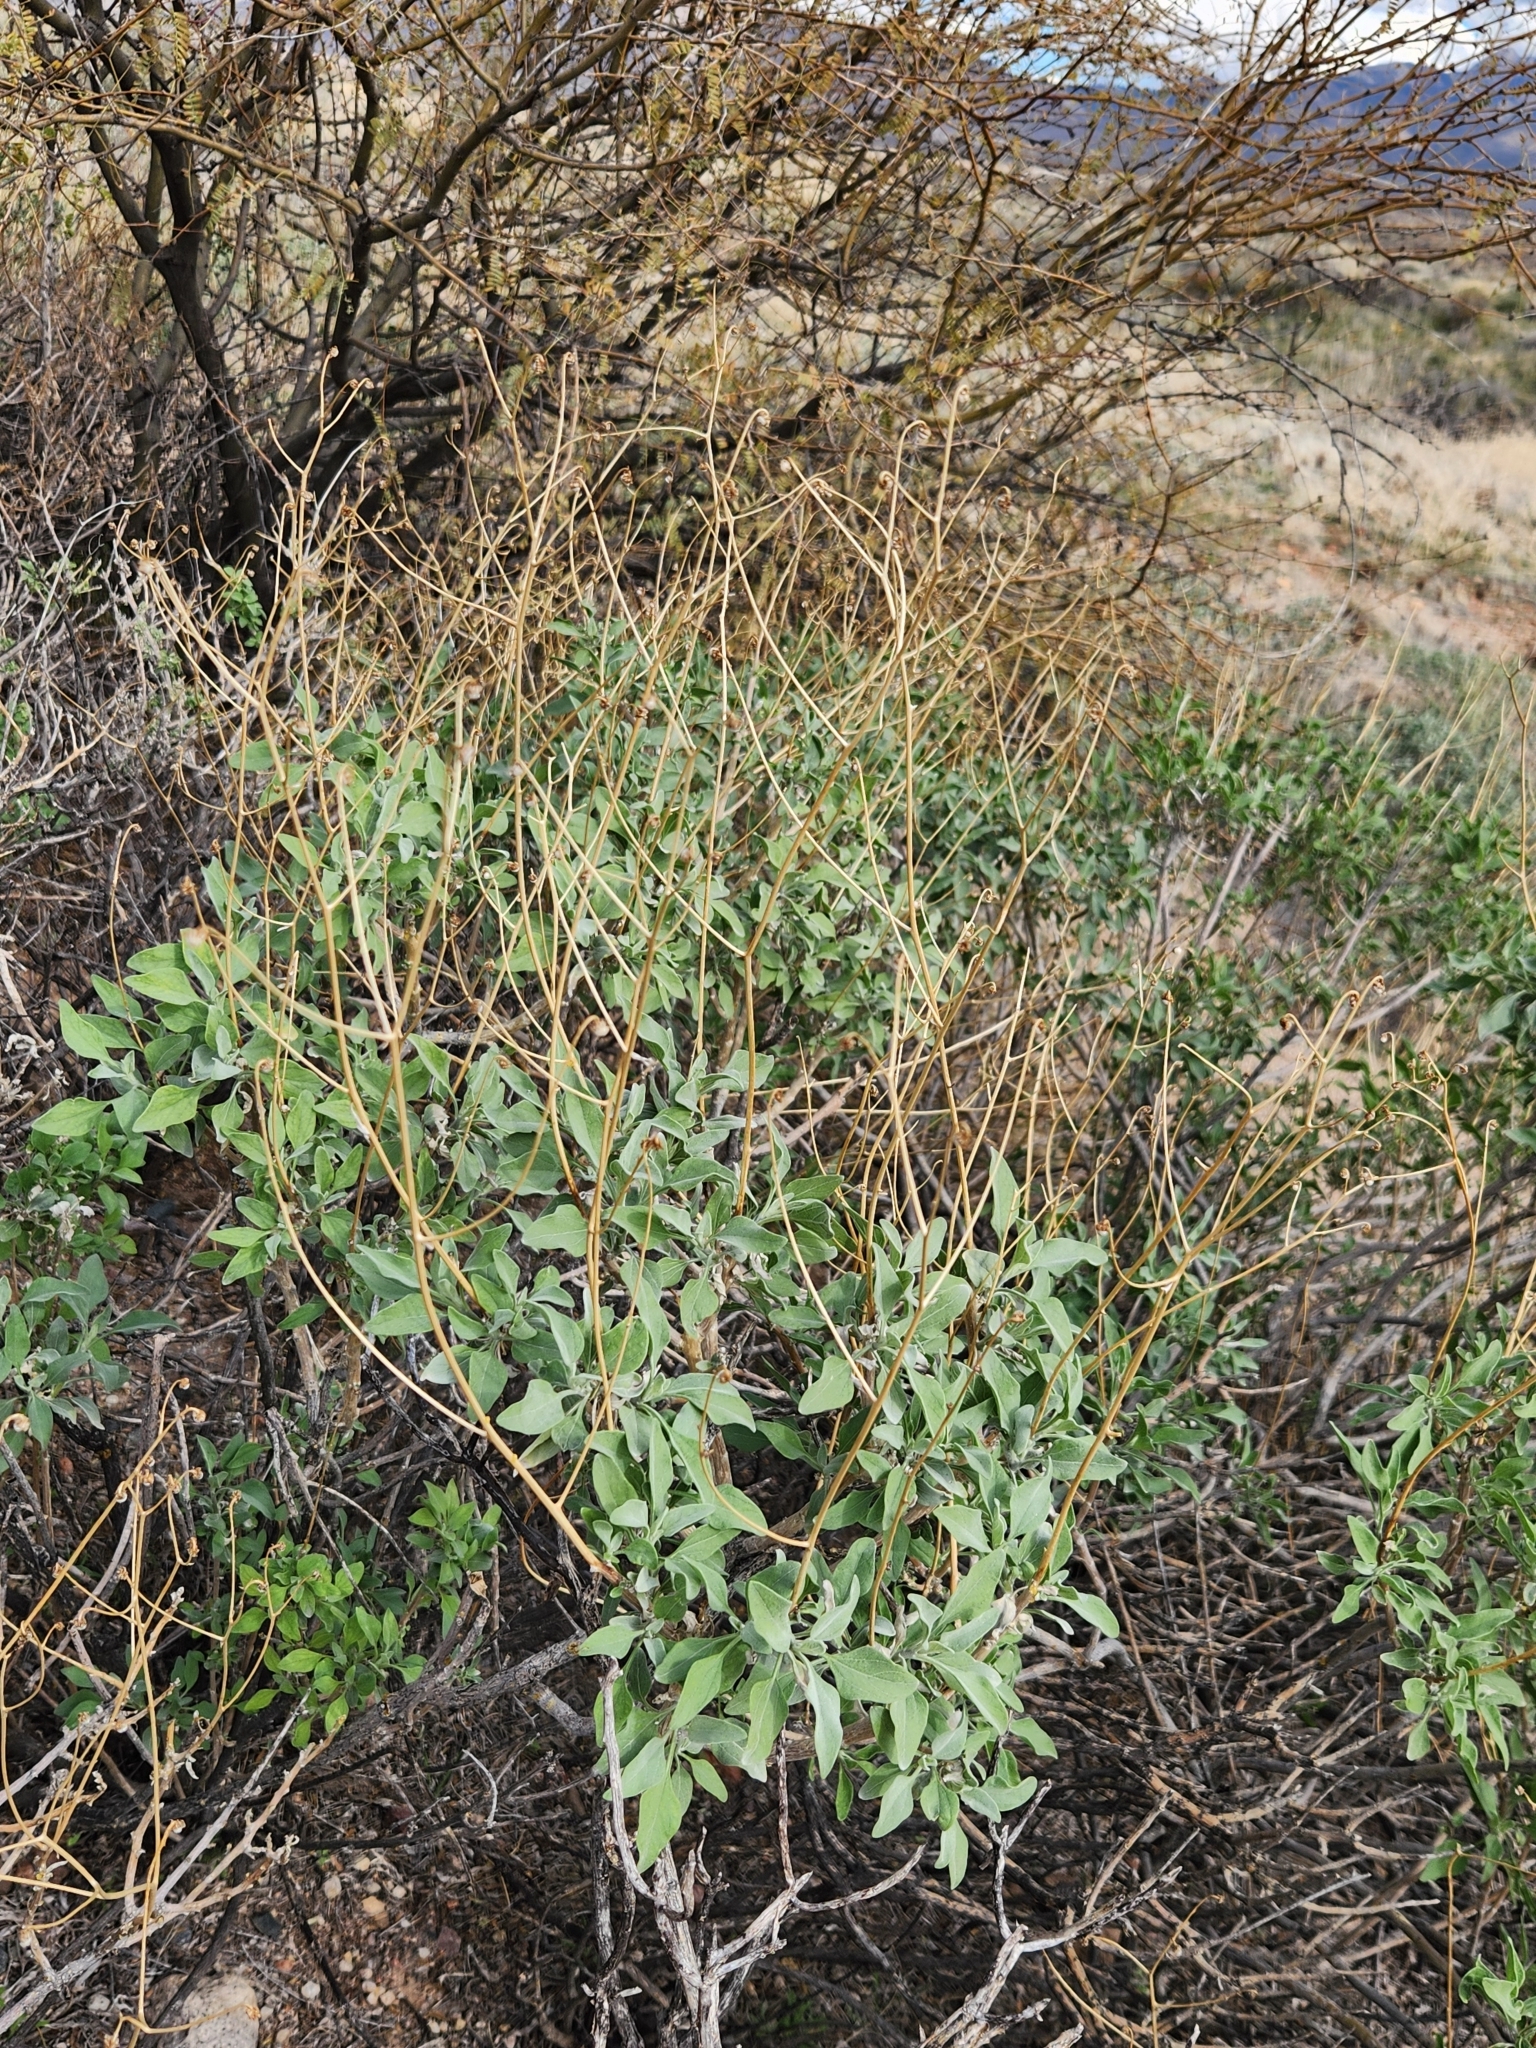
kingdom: Plantae
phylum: Tracheophyta
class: Magnoliopsida
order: Asterales
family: Asteraceae
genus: Encelia
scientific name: Encelia farinosa
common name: Brittlebush
